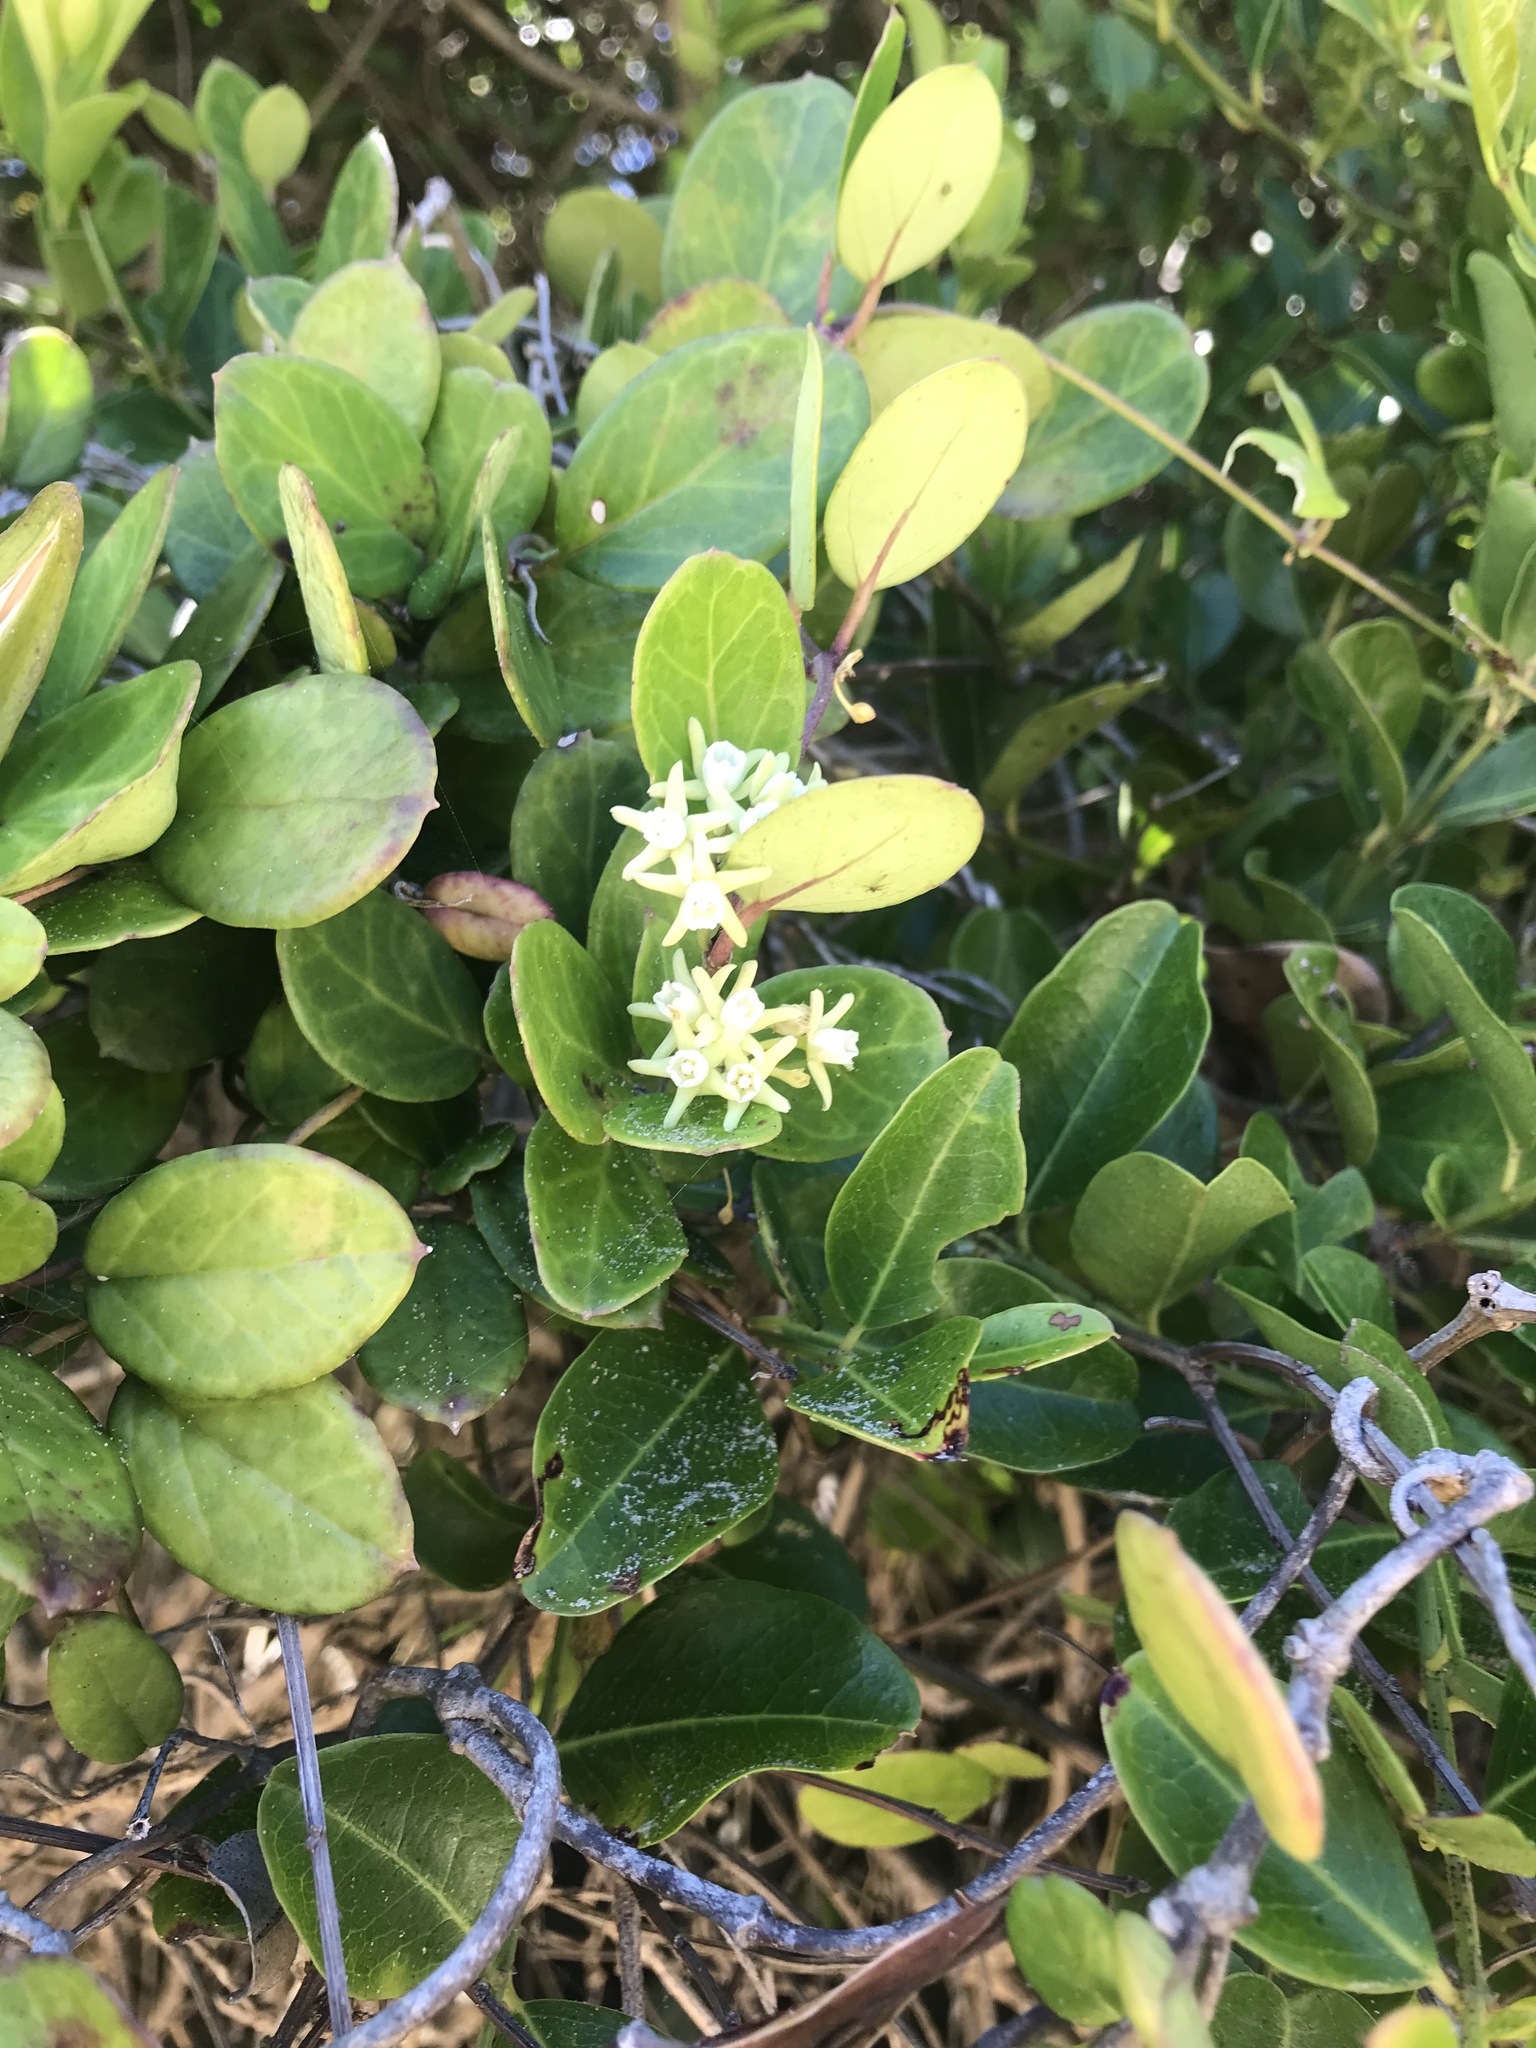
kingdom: Plantae
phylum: Tracheophyta
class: Magnoliopsida
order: Gentianales
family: Apocynaceae
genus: Cynanchum
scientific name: Cynanchum natalitium
